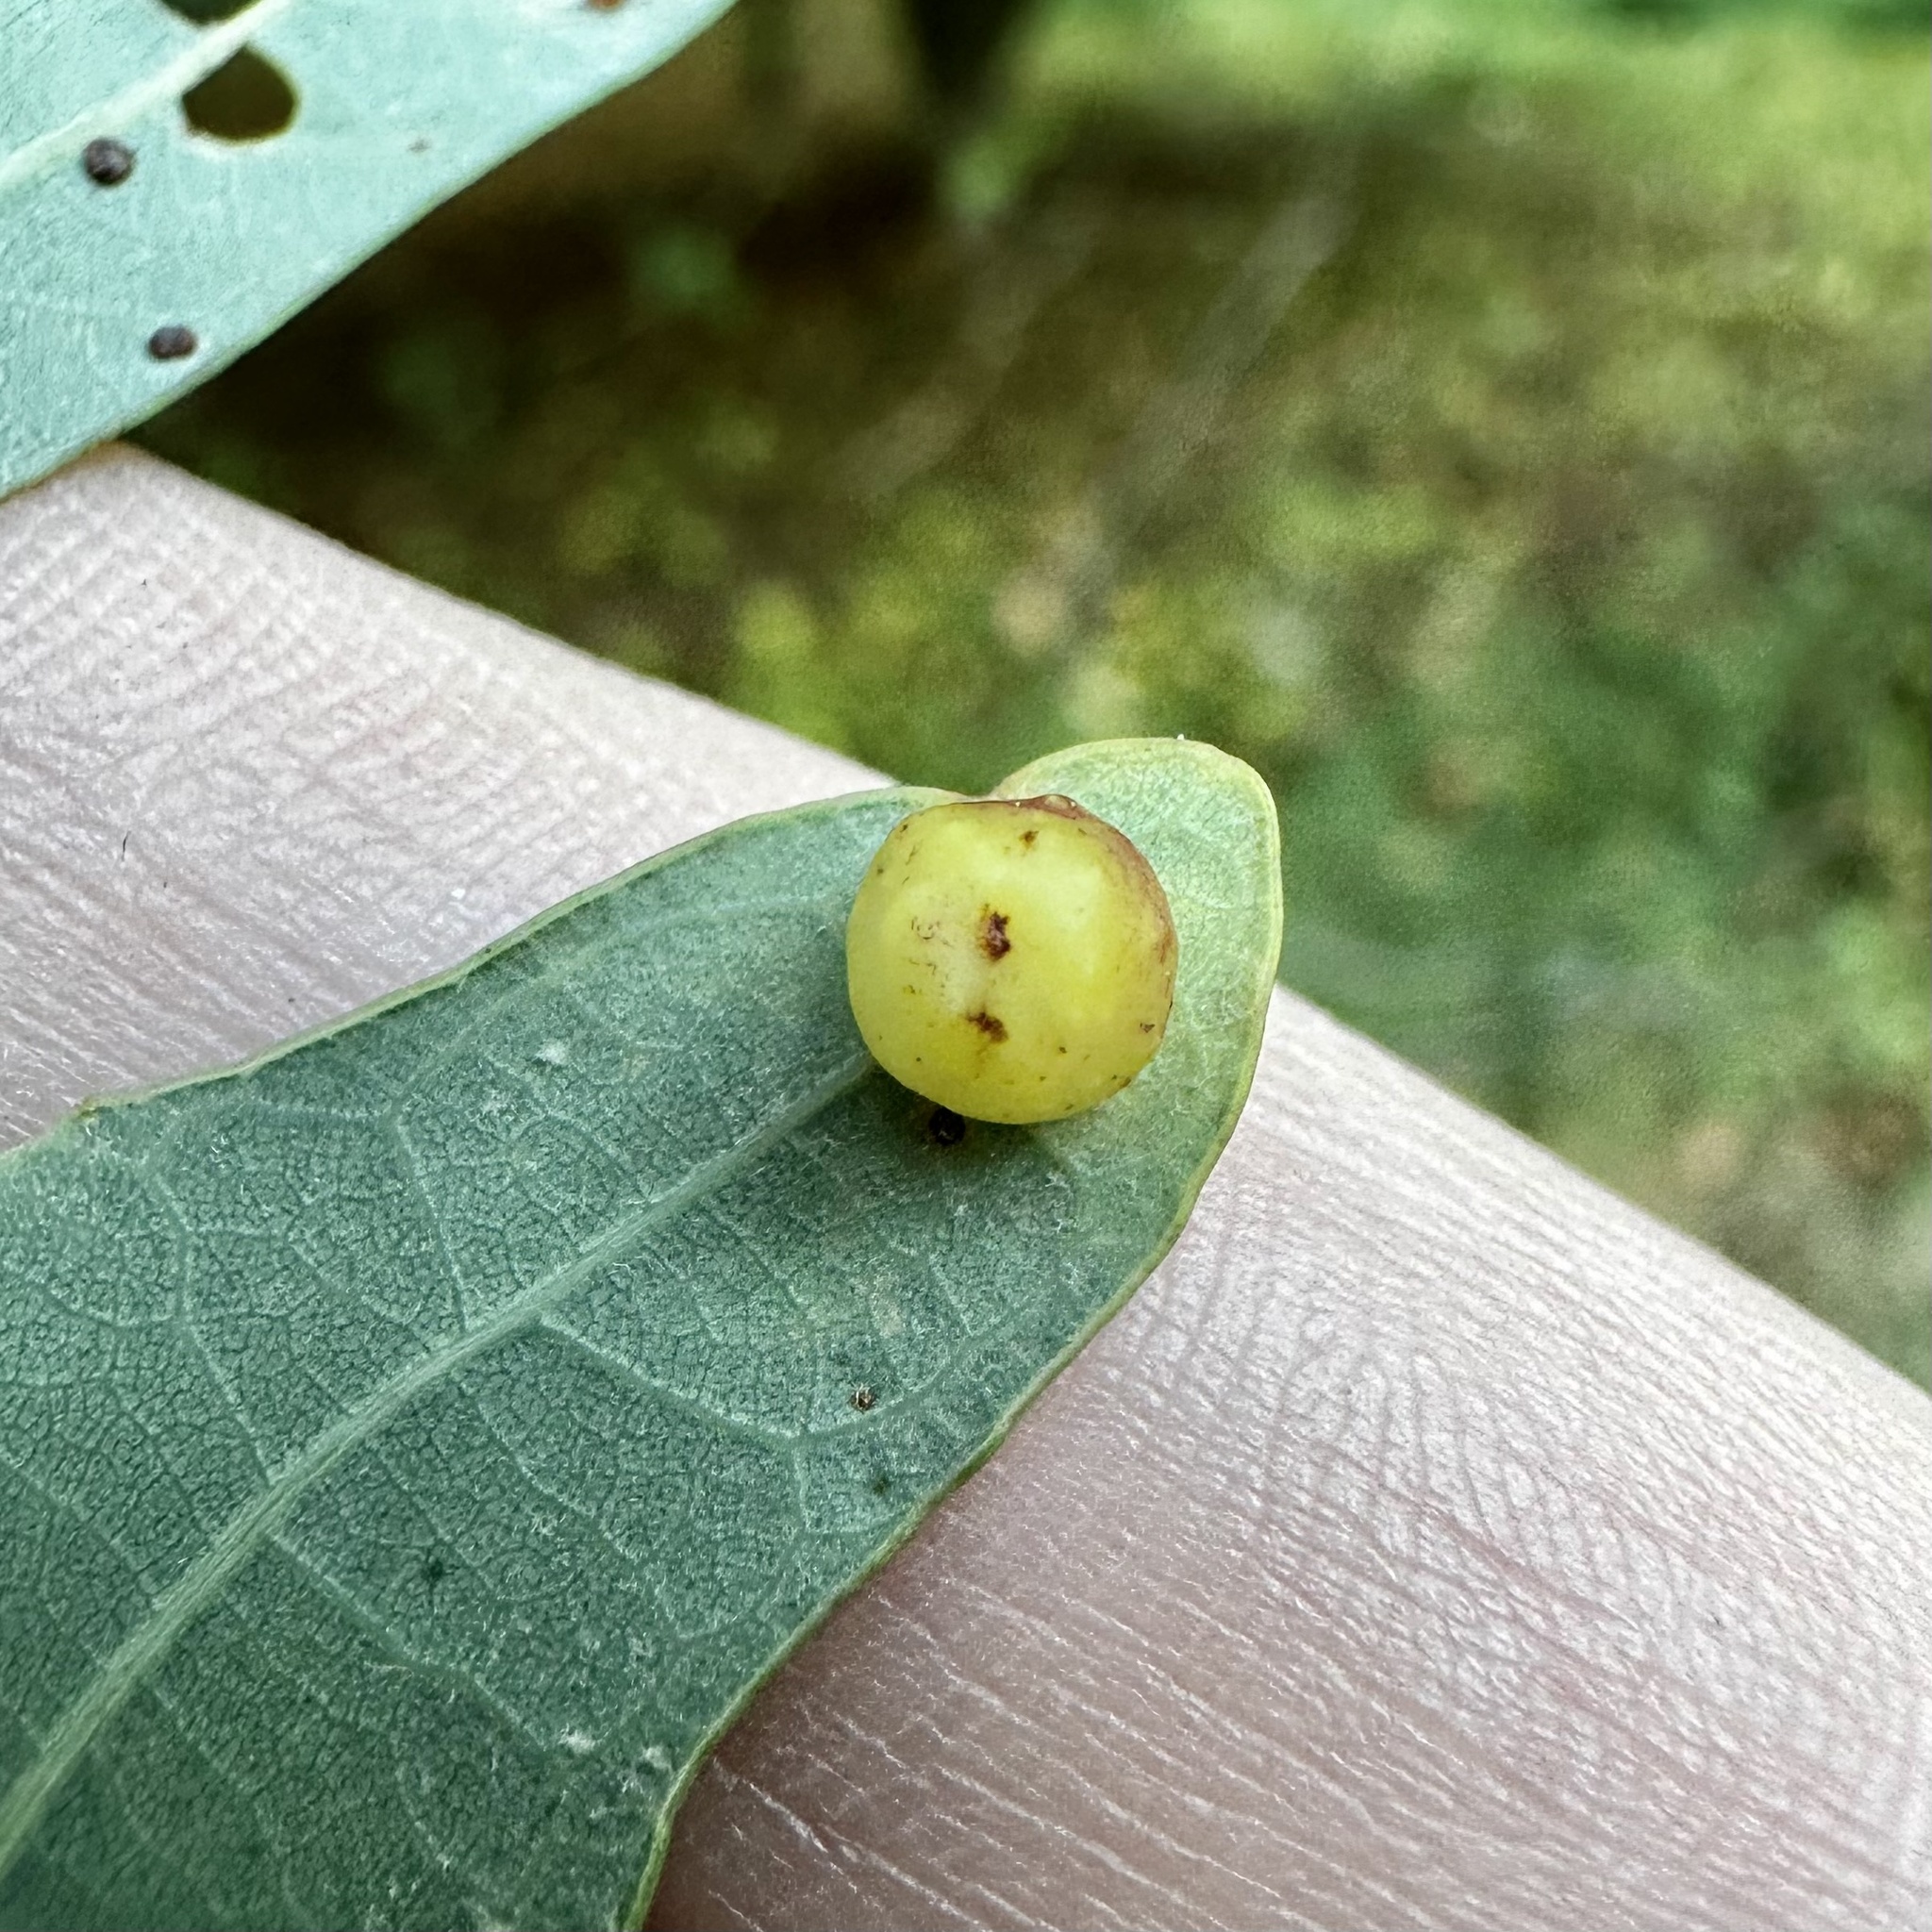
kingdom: Animalia
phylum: Arthropoda
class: Insecta
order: Hymenoptera
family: Cynipidae
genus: Andricus
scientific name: Andricus
